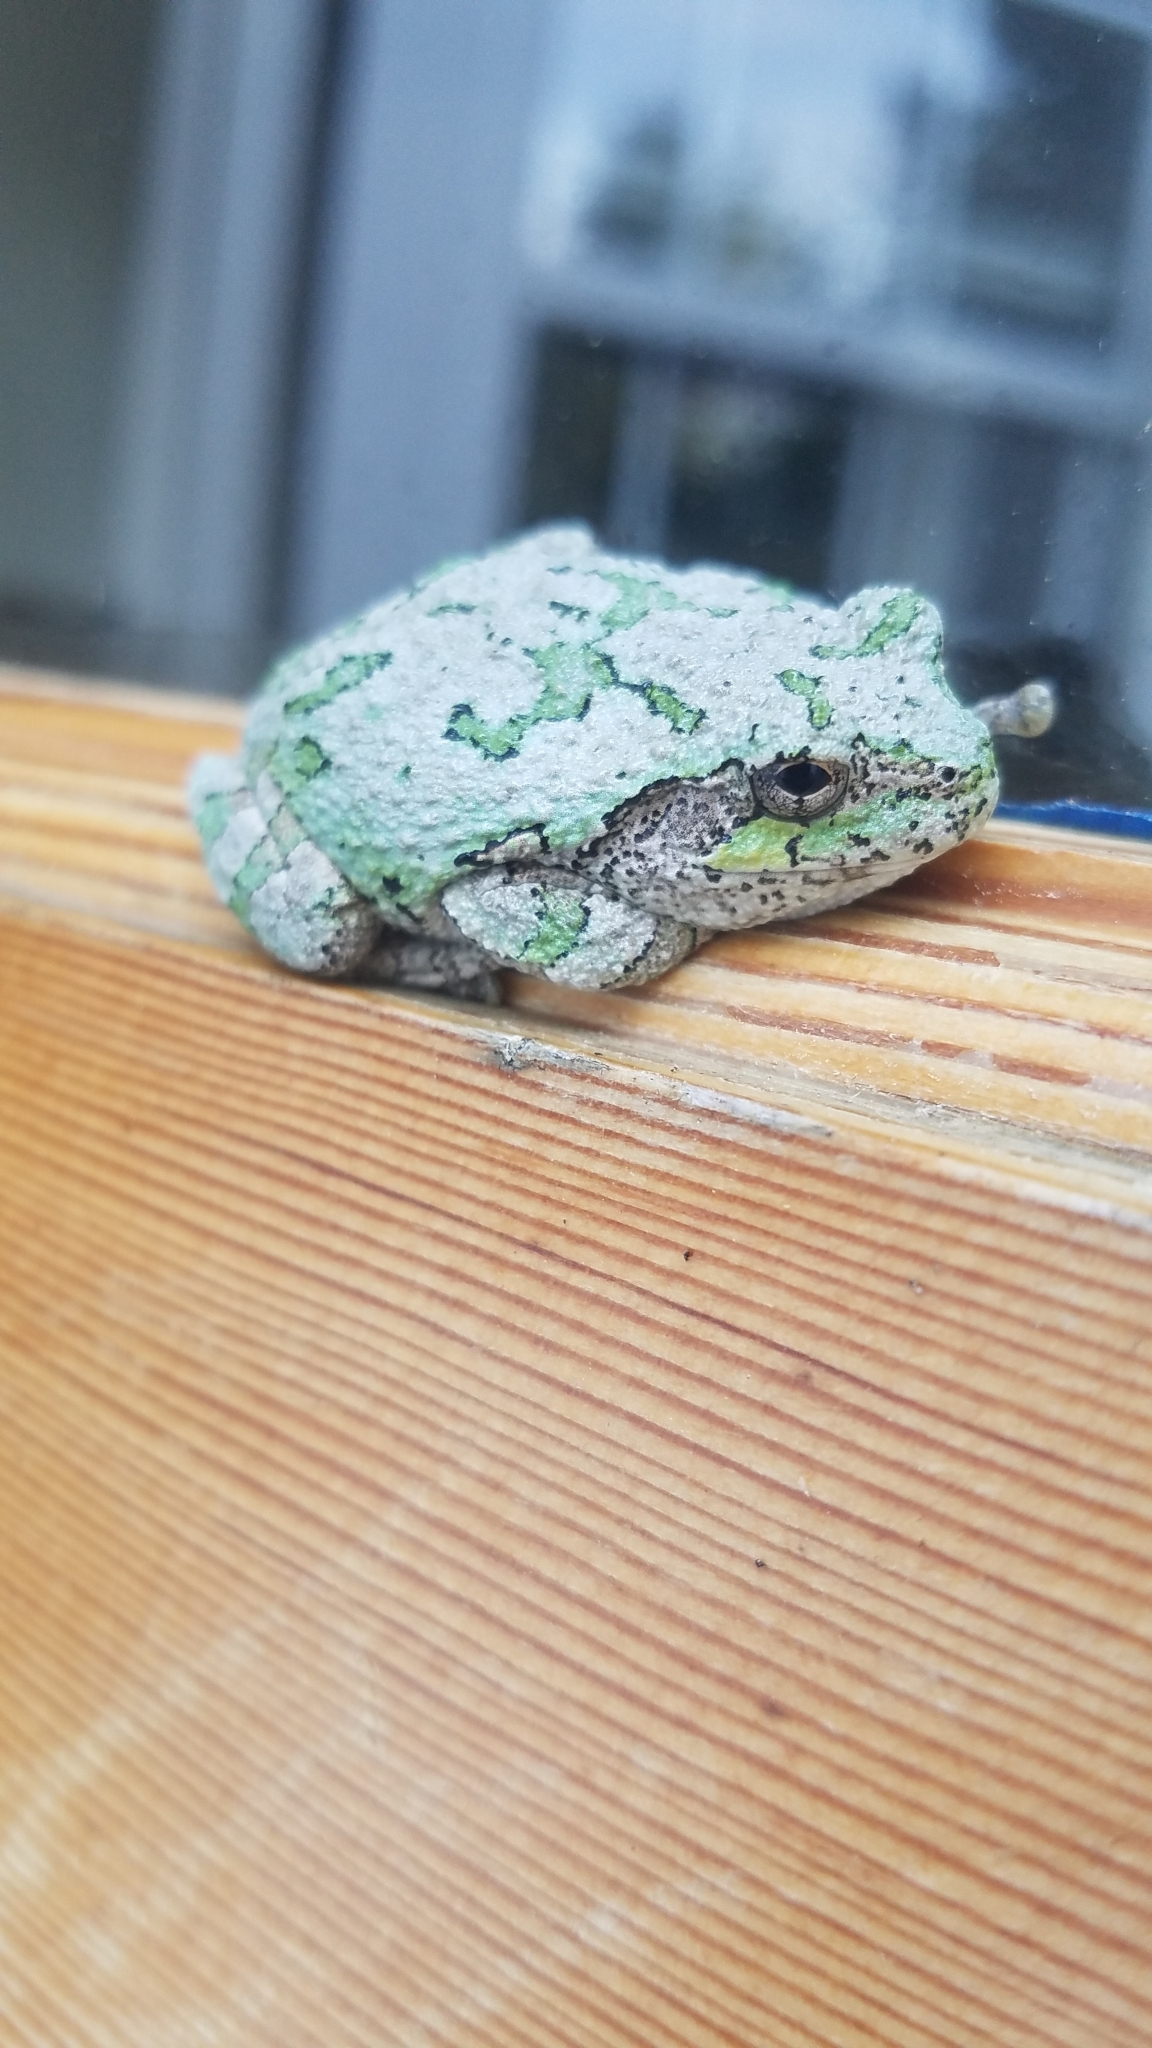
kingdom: Animalia
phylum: Chordata
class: Amphibia
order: Anura
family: Hylidae
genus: Dryophytes
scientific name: Dryophytes versicolor
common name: Gray treefrog
